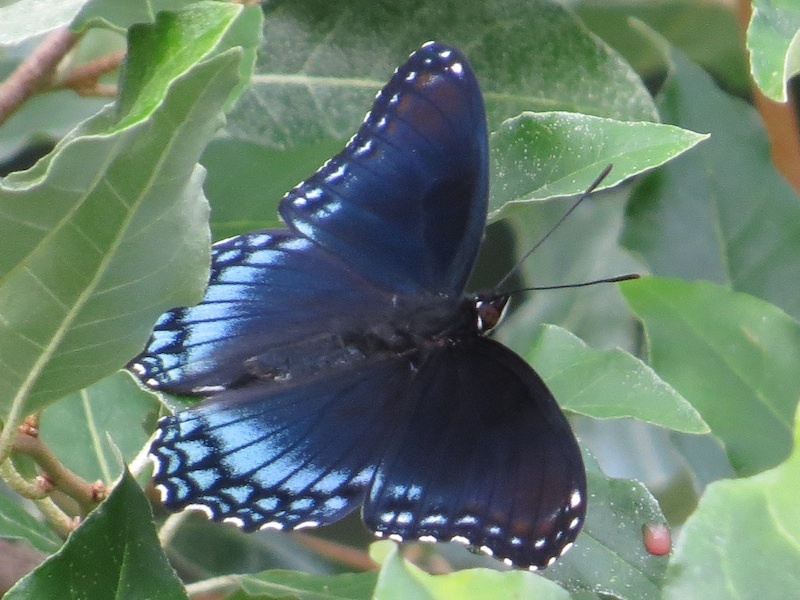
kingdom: Animalia
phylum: Arthropoda
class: Insecta
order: Lepidoptera
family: Nymphalidae
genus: Limenitis
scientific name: Limenitis astyanax
